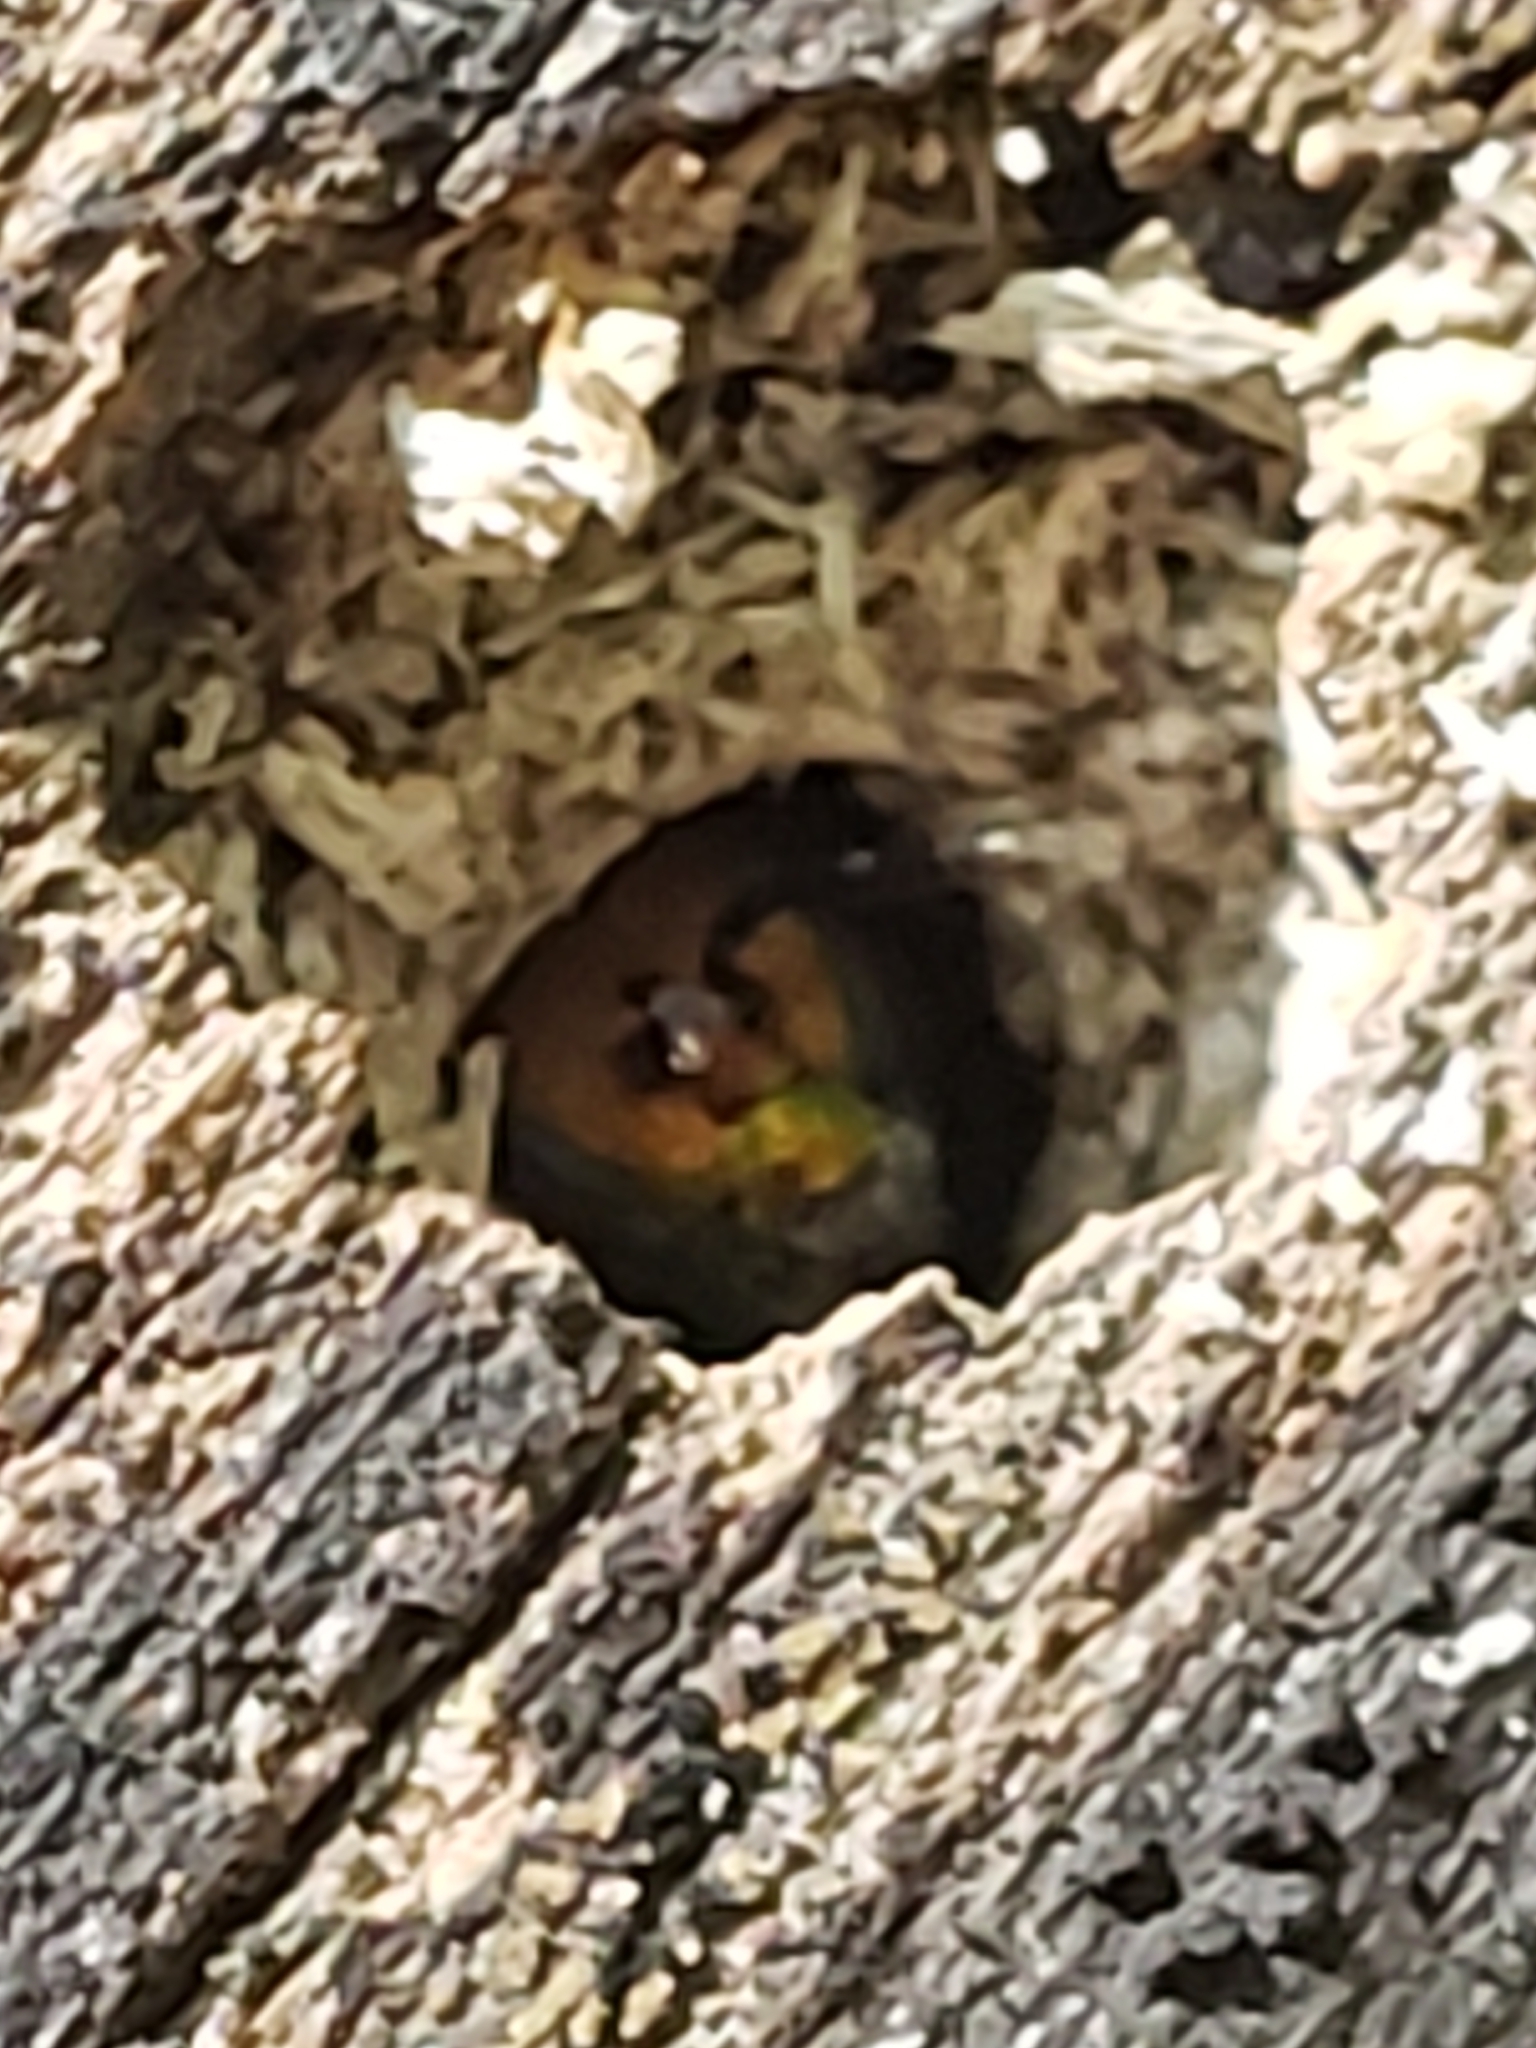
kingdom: Animalia
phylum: Arthropoda
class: Insecta
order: Hymenoptera
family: Halictidae
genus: Augochlora
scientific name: Augochlora pura
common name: Pure green sweat bee
